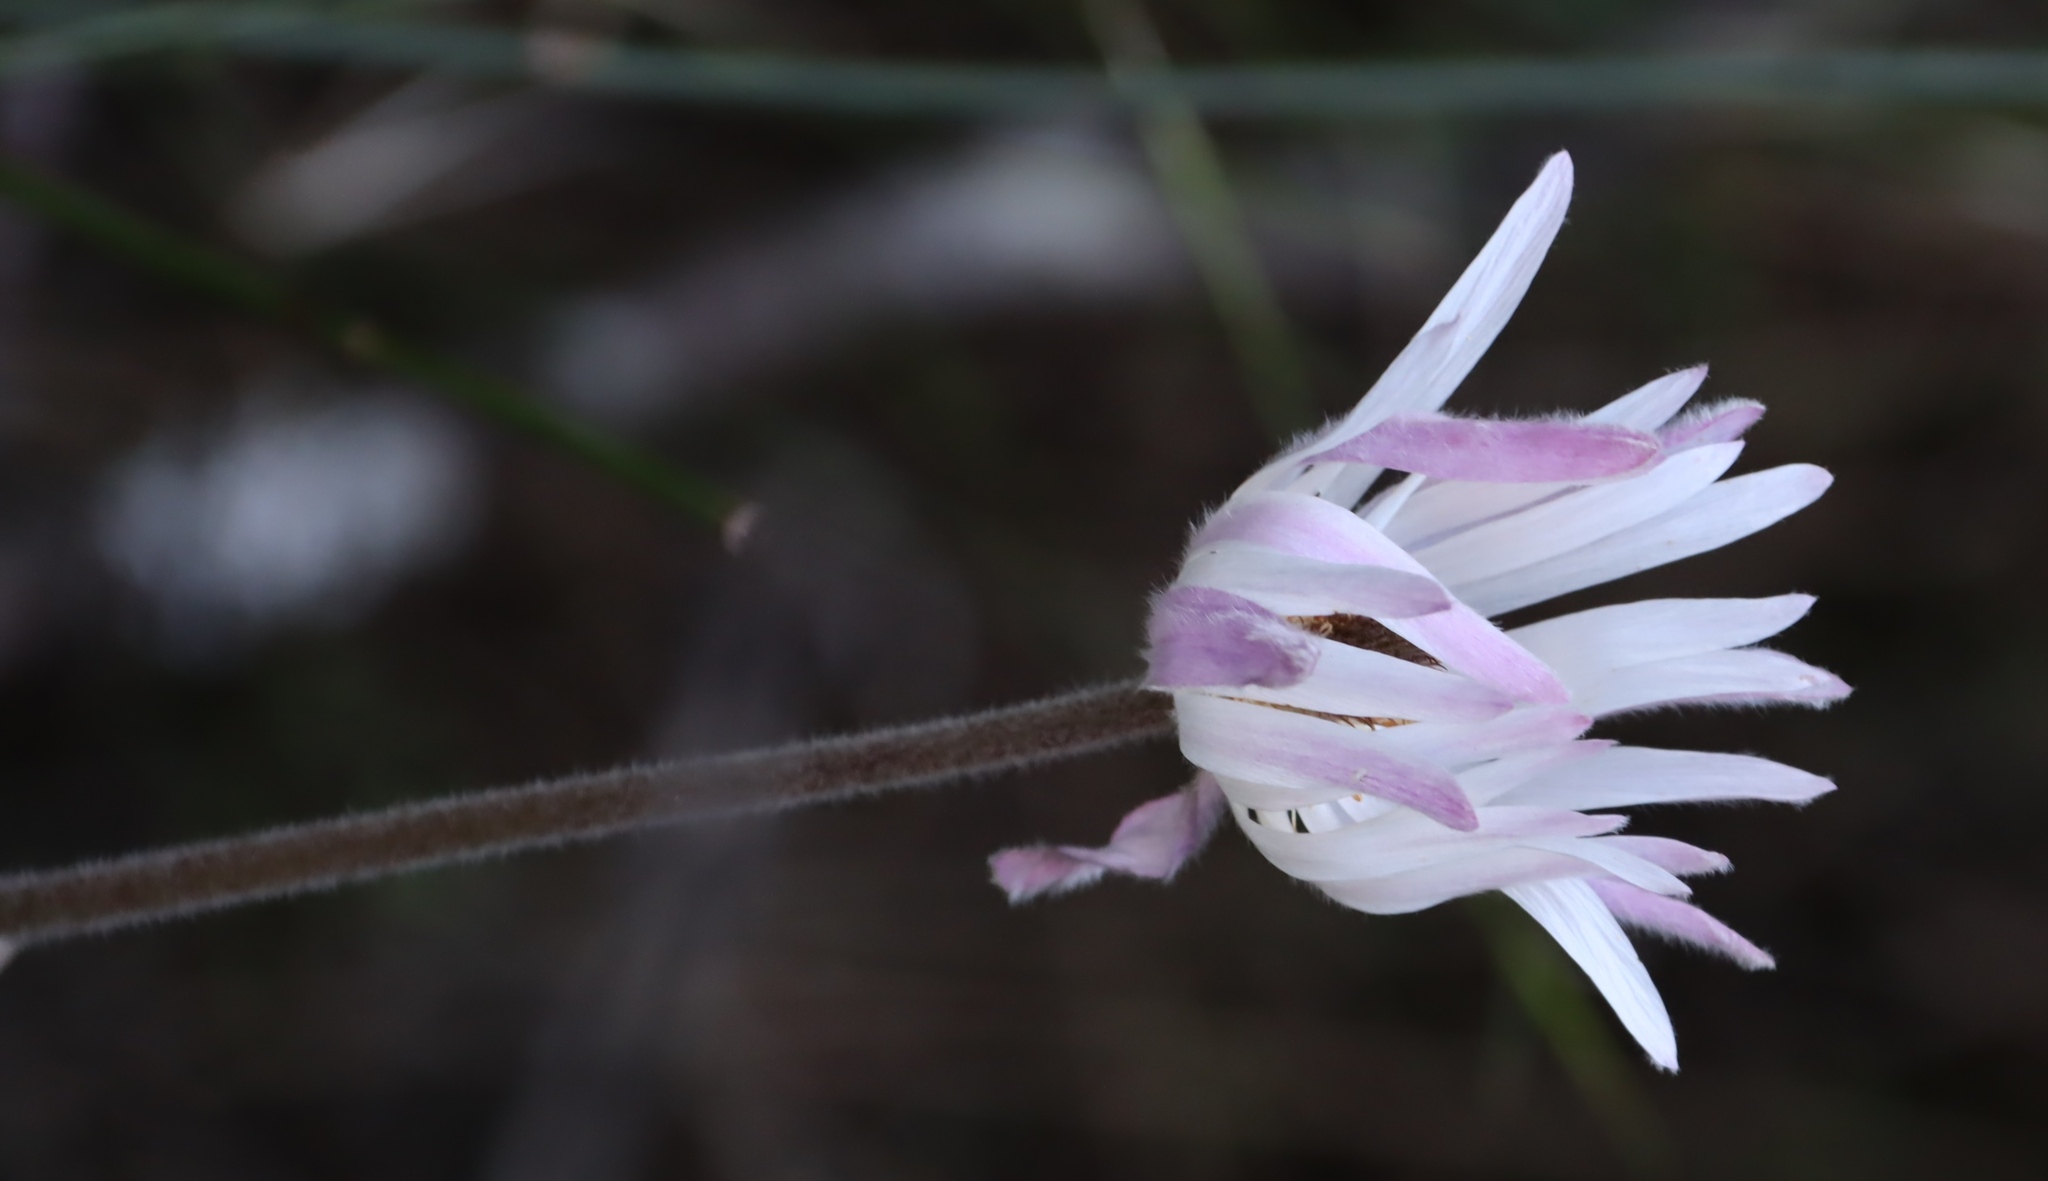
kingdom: Plantae
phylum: Tracheophyta
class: Magnoliopsida
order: Ranunculales
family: Ranunculaceae
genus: Knowltonia
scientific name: Knowltonia tenuifolia
